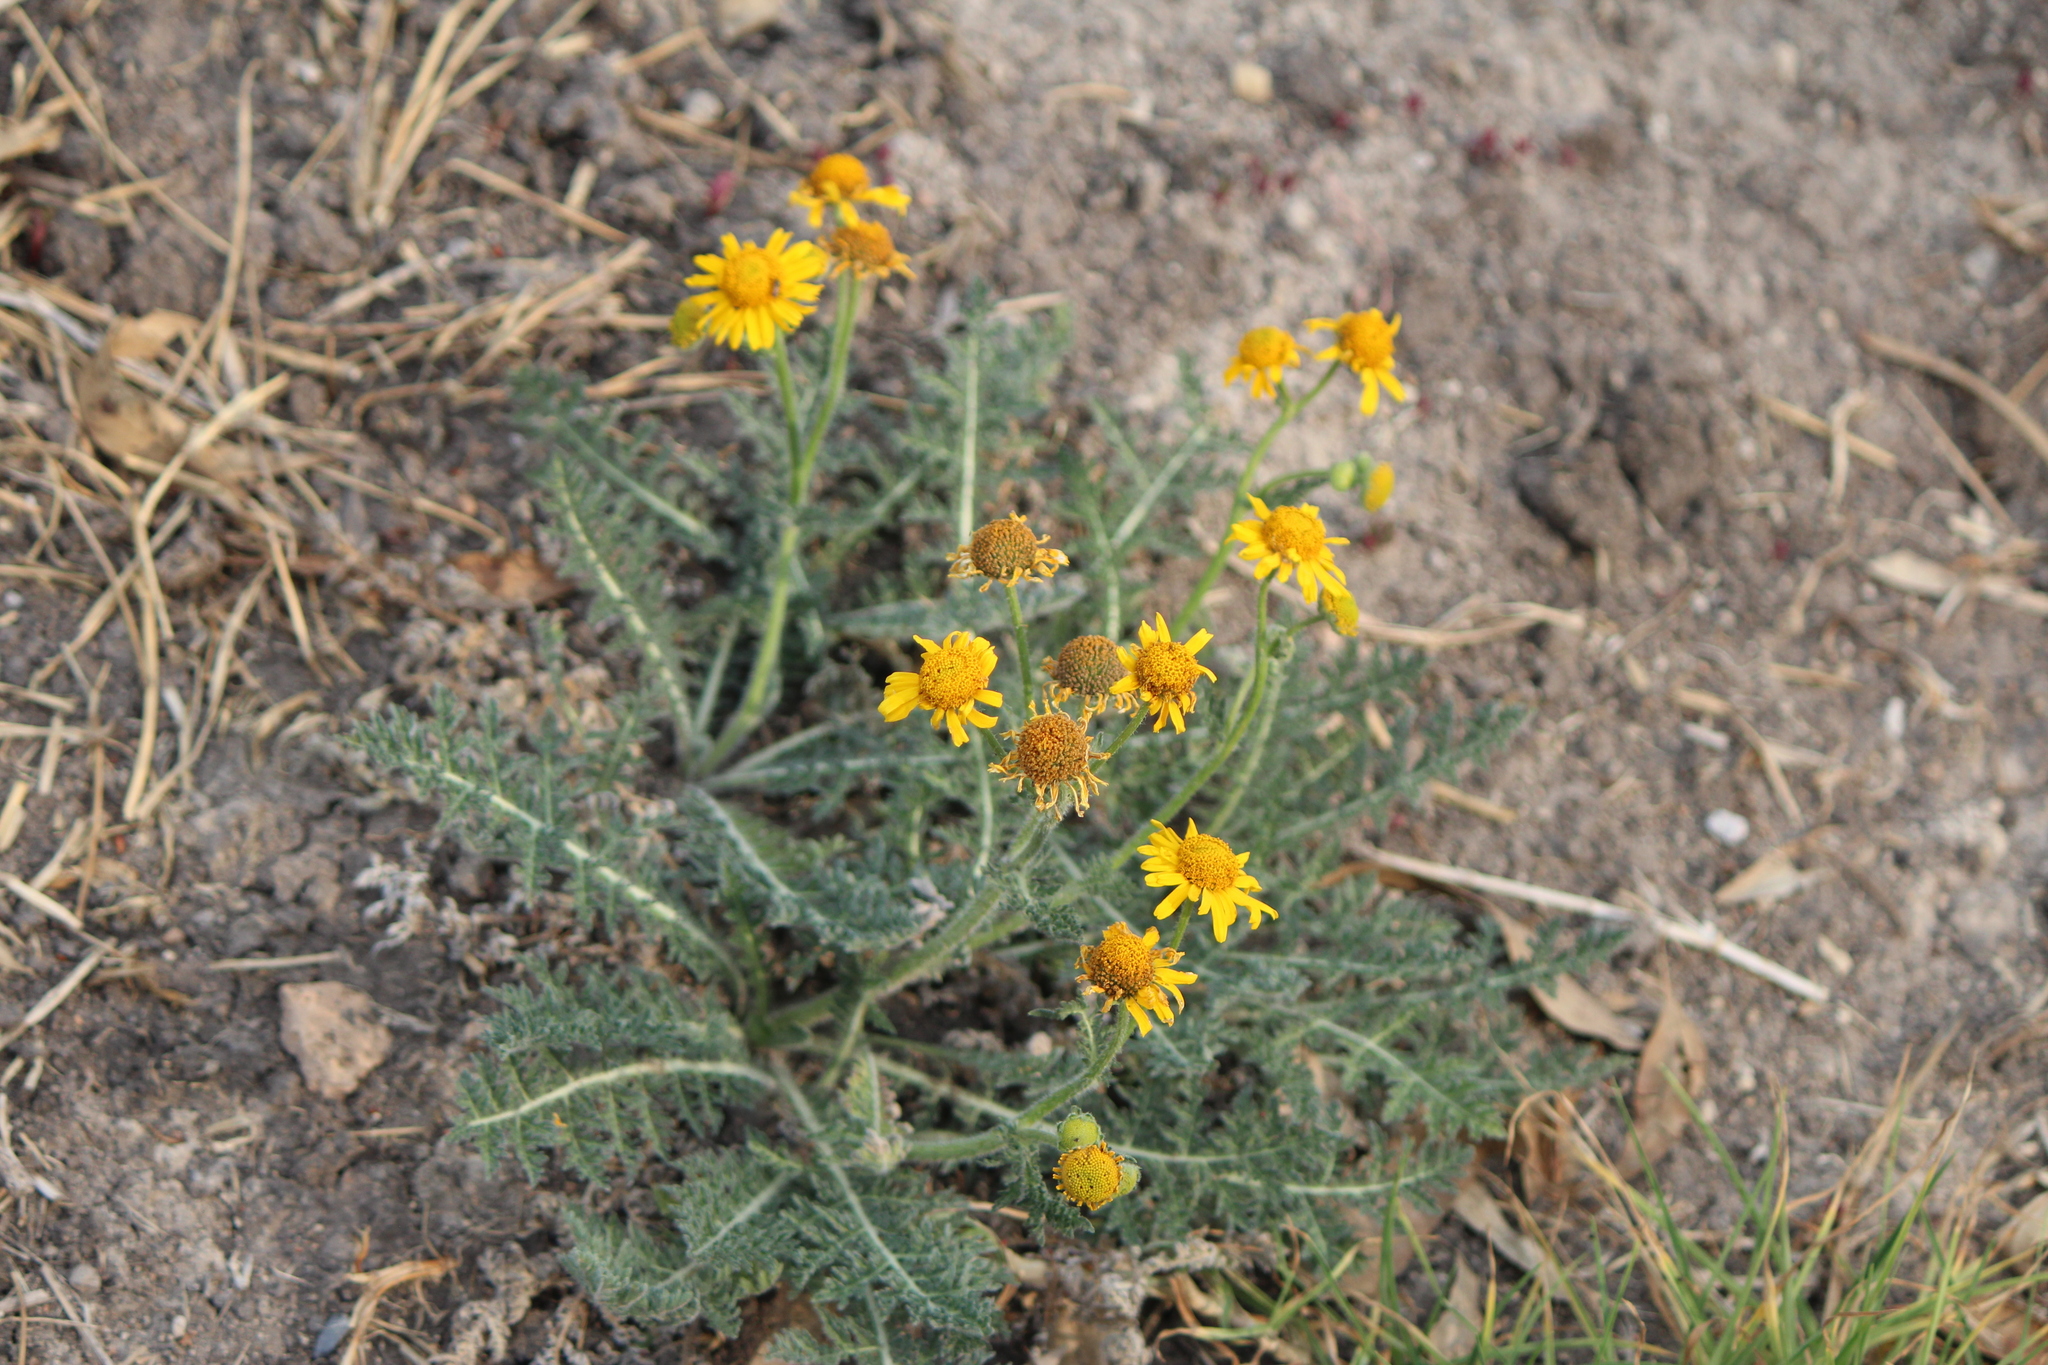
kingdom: Plantae
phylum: Tracheophyta
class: Magnoliopsida
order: Asterales
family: Asteraceae
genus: Hybridella
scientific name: Hybridella globosa
